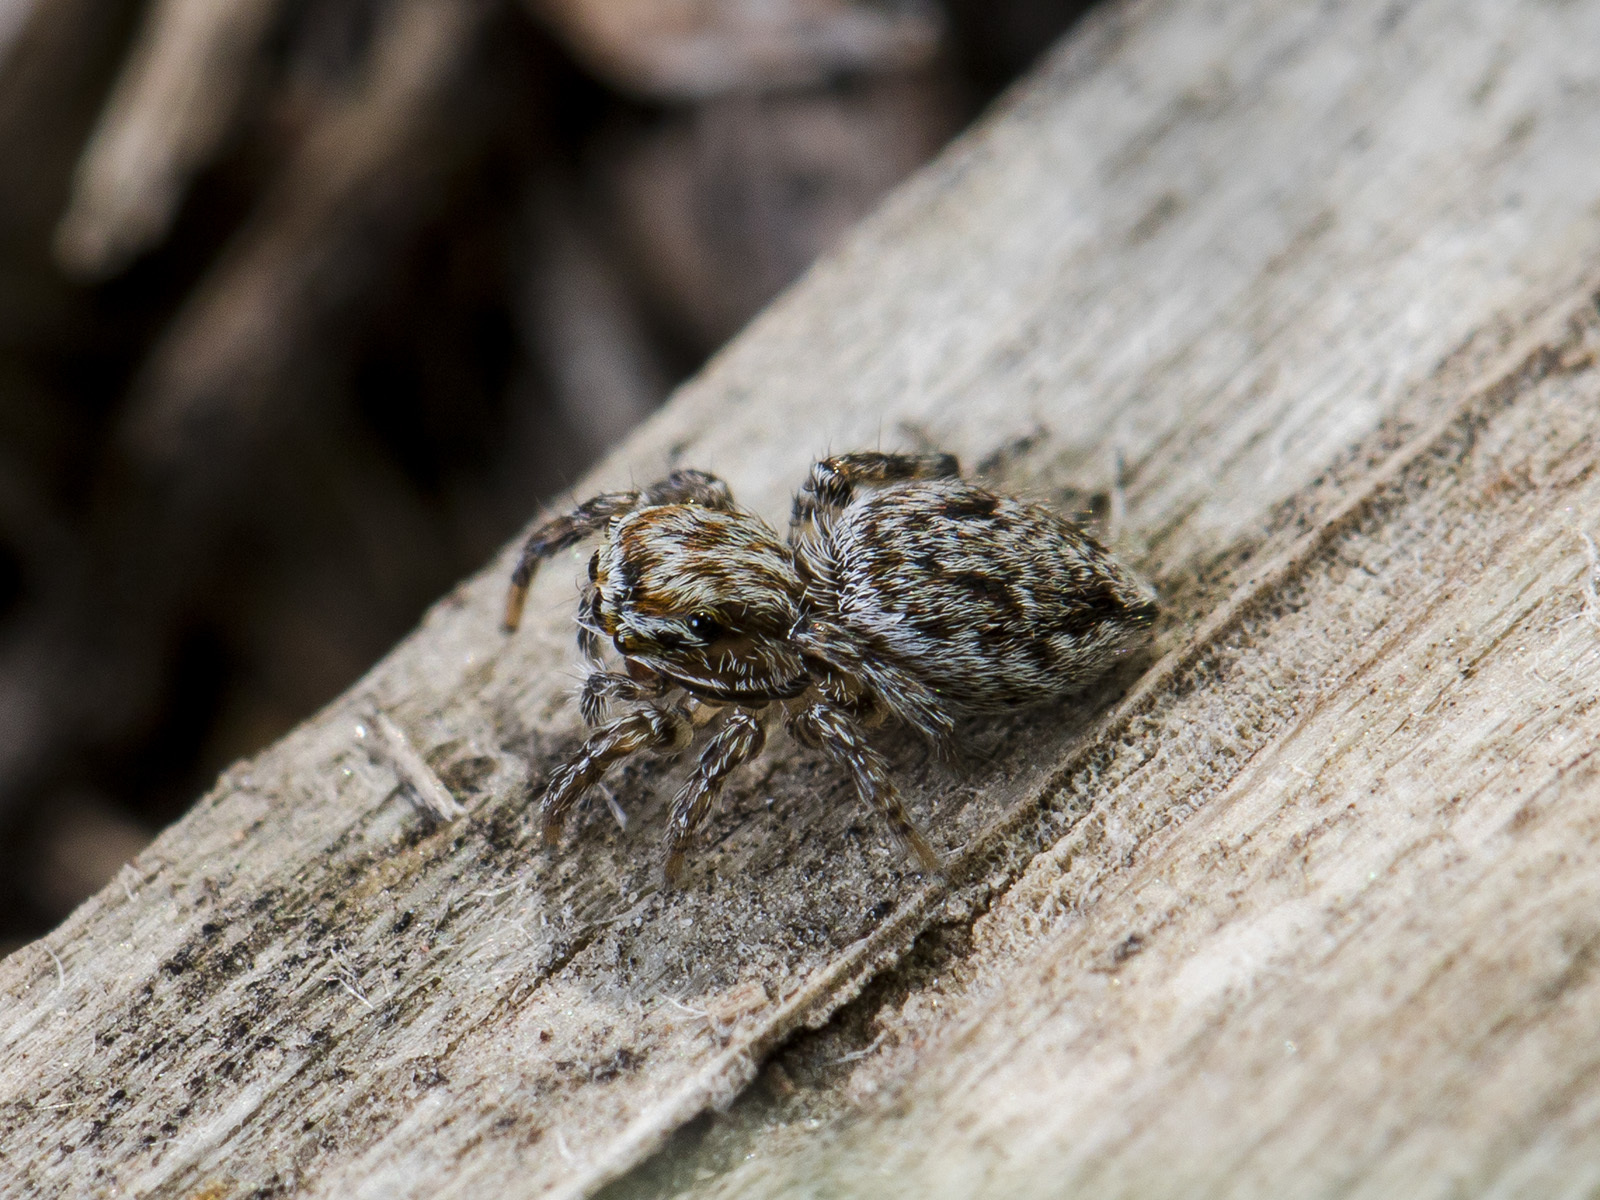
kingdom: Animalia
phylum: Arthropoda
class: Arachnida
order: Araneae
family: Salticidae
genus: Attulus
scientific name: Attulus nenilini
